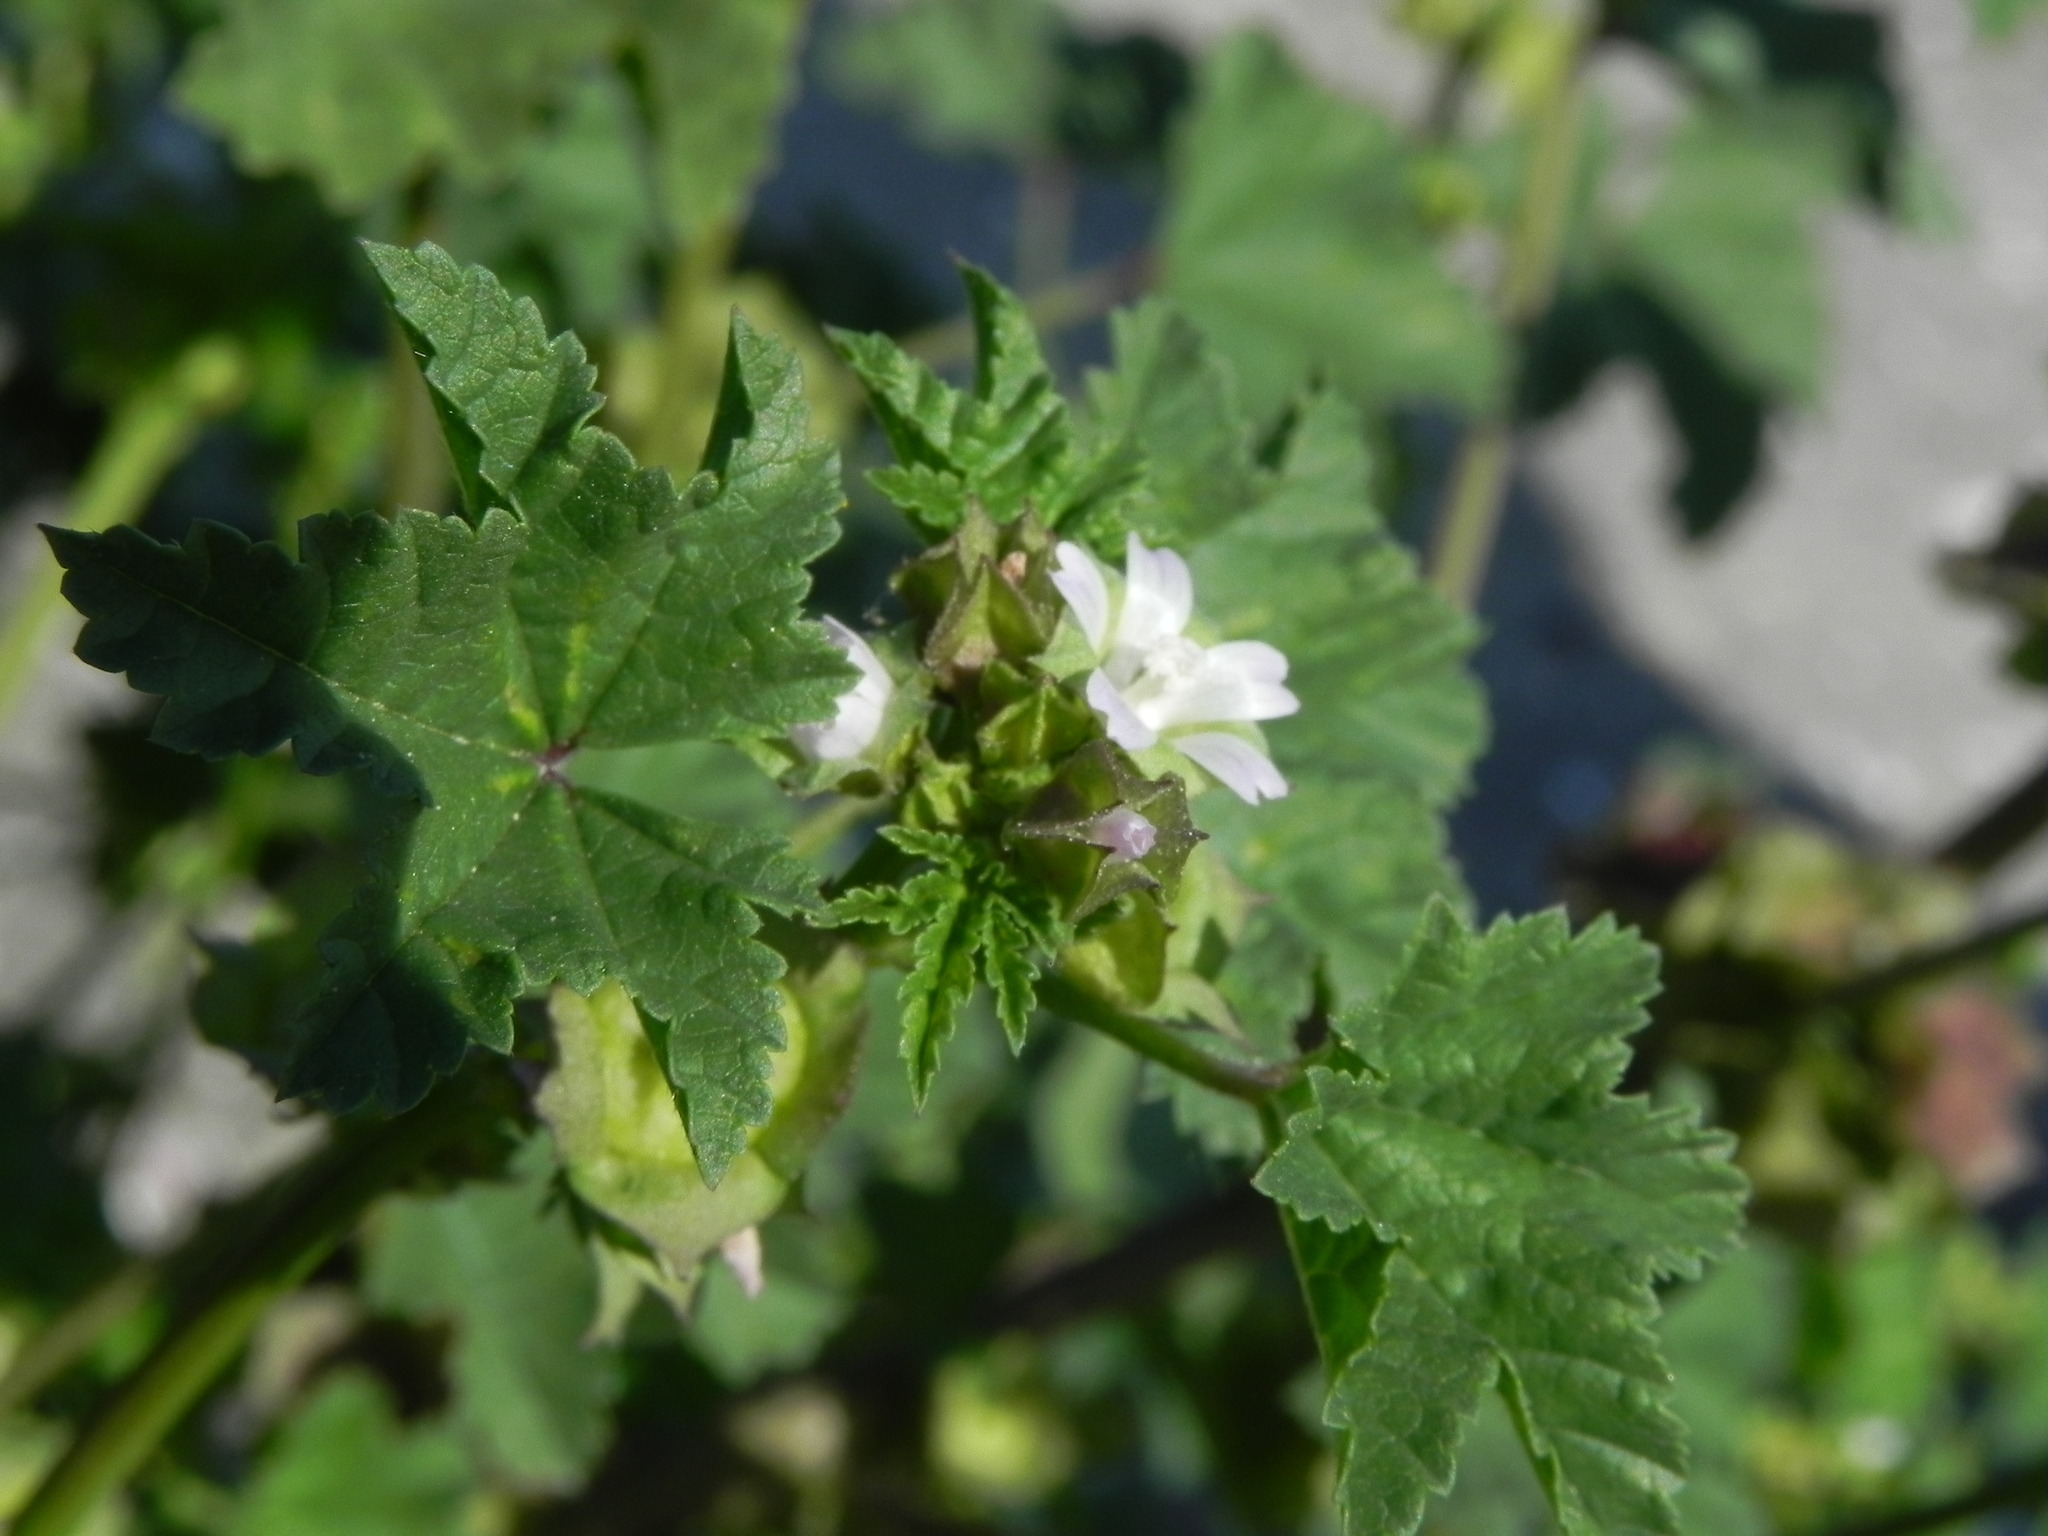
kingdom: Plantae
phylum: Tracheophyta
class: Magnoliopsida
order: Malvales
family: Malvaceae
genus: Malva
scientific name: Malva parviflora
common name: Least mallow
